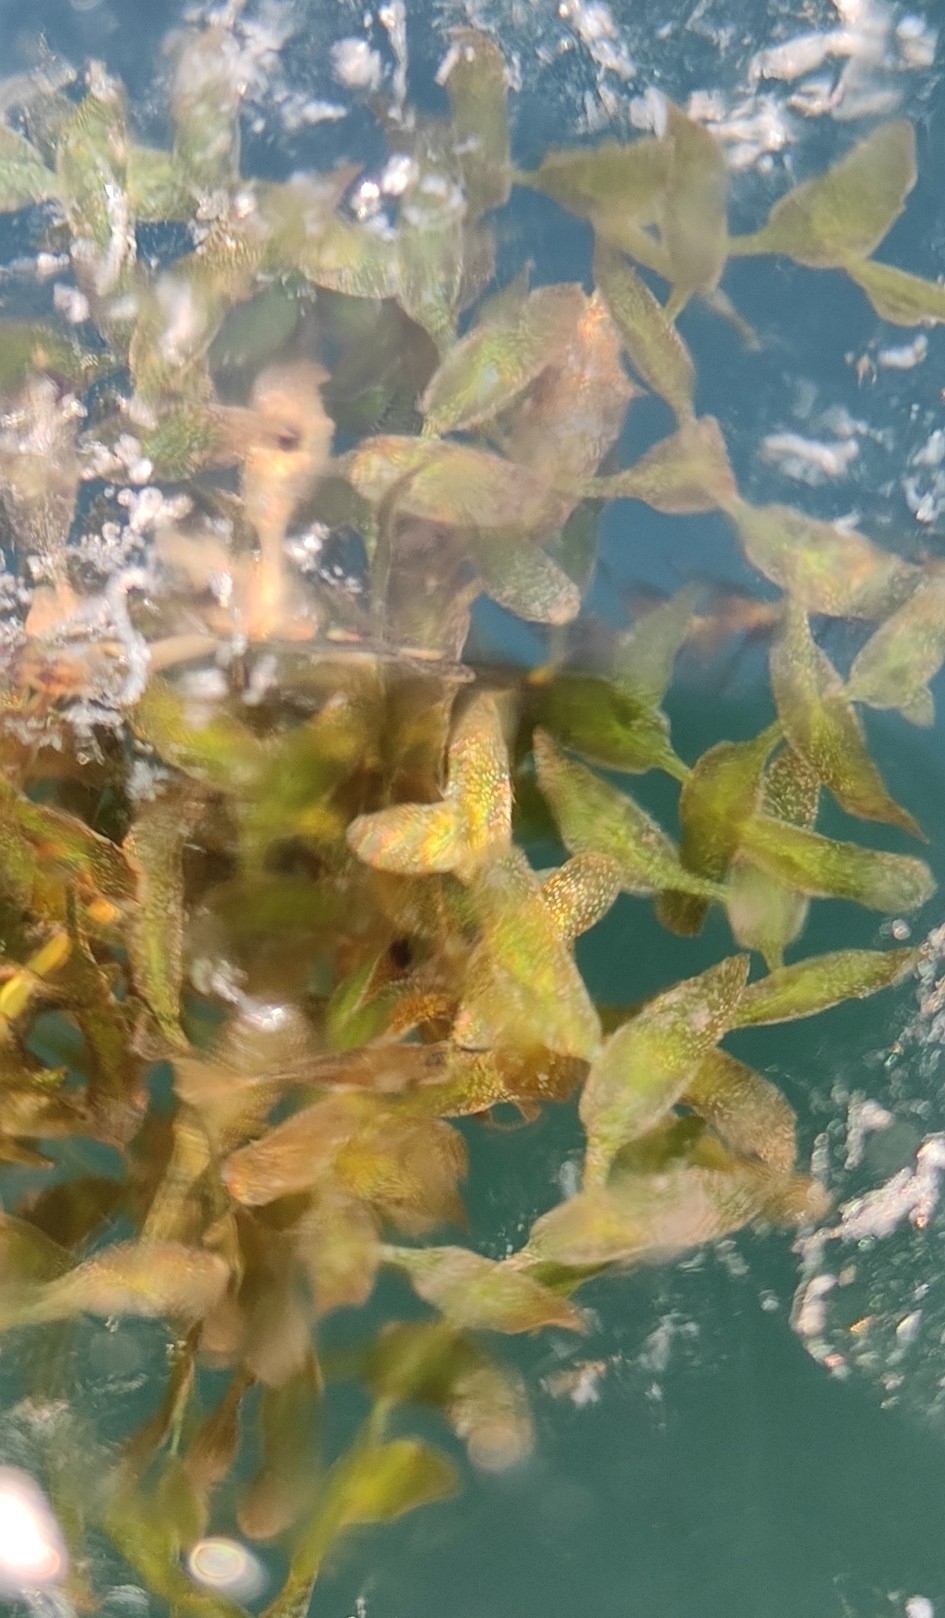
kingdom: Plantae
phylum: Tracheophyta
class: Liliopsida
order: Alismatales
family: Araceae
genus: Lemna
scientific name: Lemna trisulca
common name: Ivy-leaved duckweed
